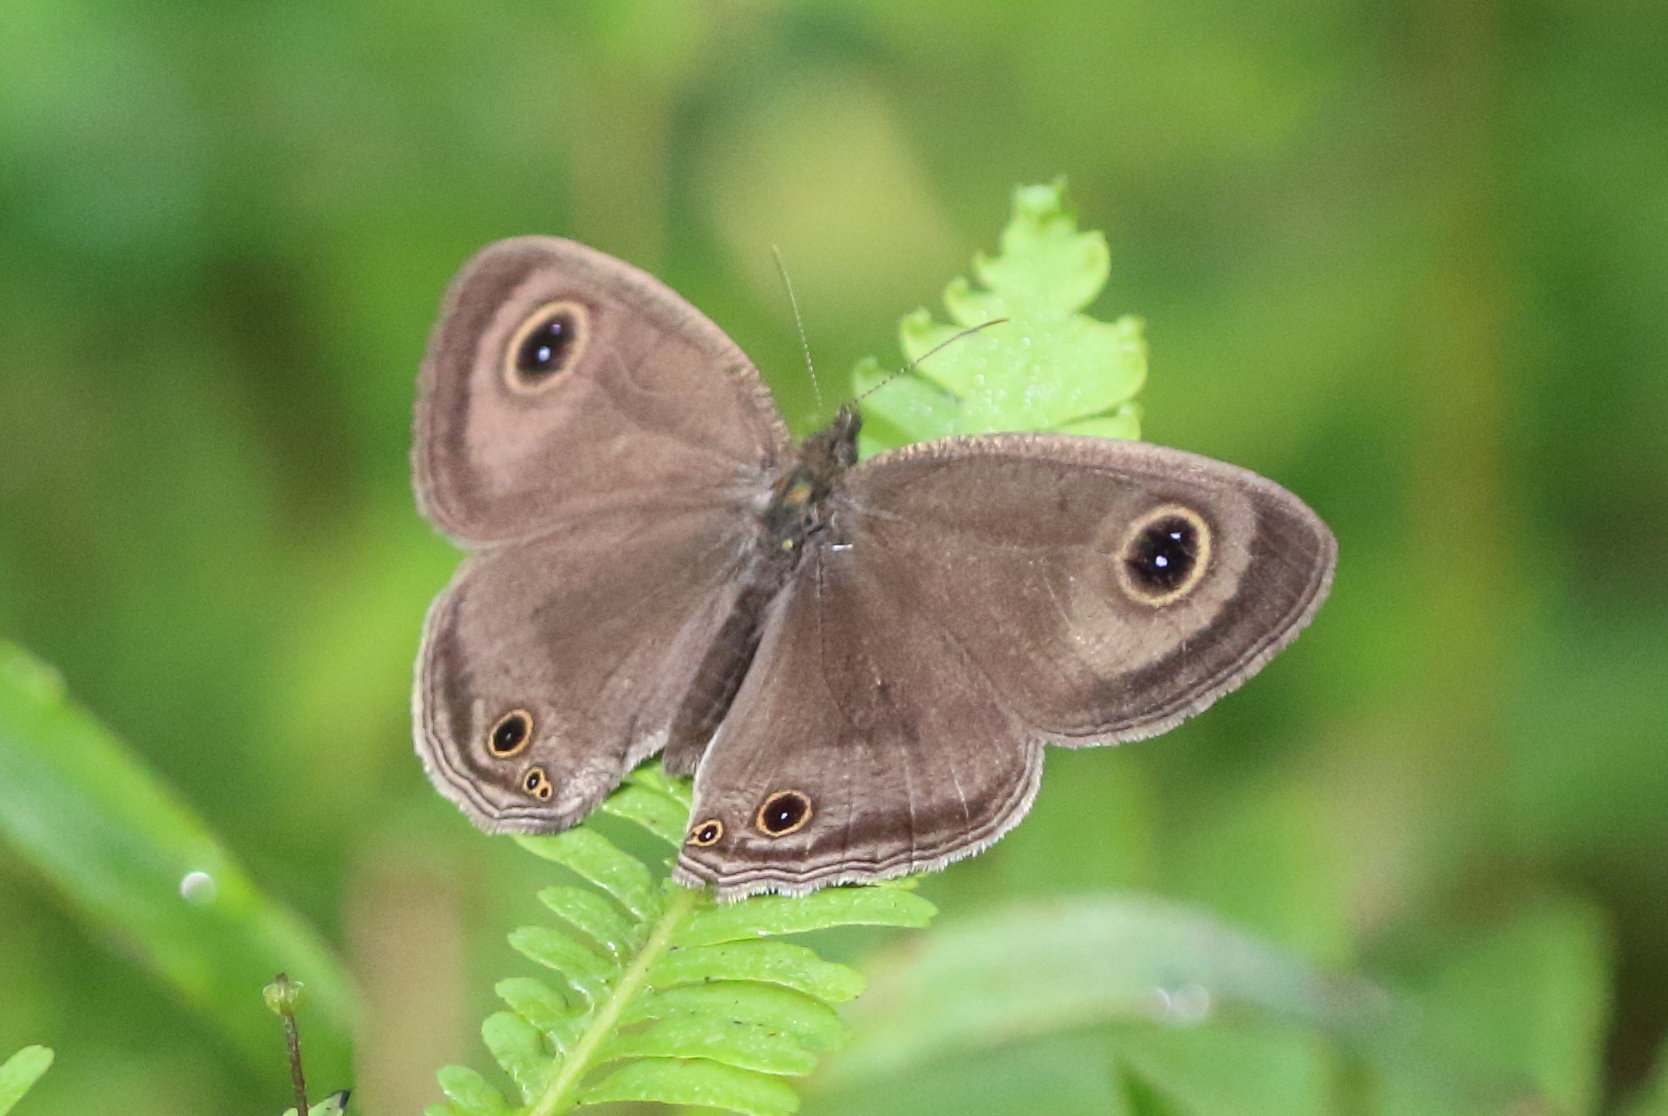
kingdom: Animalia
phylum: Arthropoda
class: Insecta
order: Lepidoptera
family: Nymphalidae
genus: Ypthima
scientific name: Ypthima pandocus
